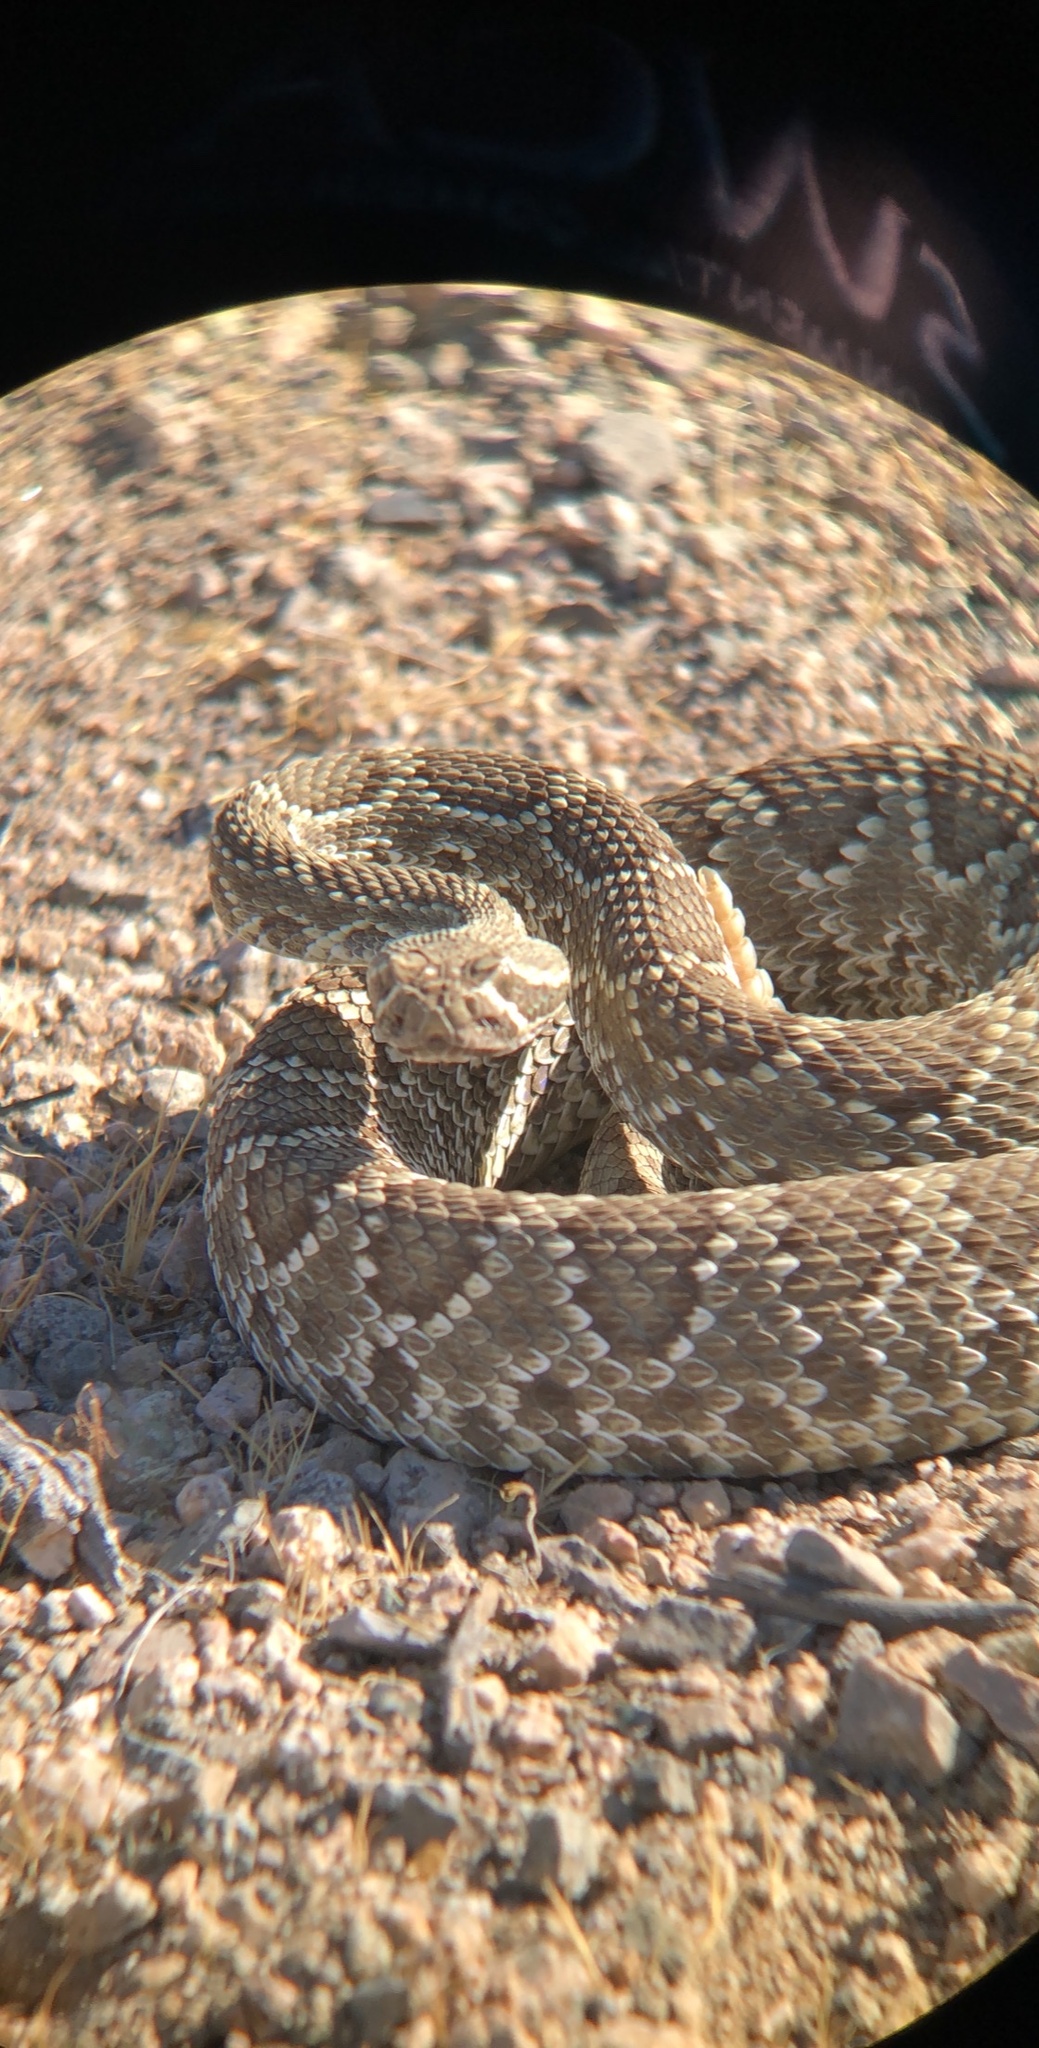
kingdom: Animalia
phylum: Chordata
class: Squamata
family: Viperidae
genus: Crotalus
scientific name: Crotalus scutulatus
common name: Scutulatus
